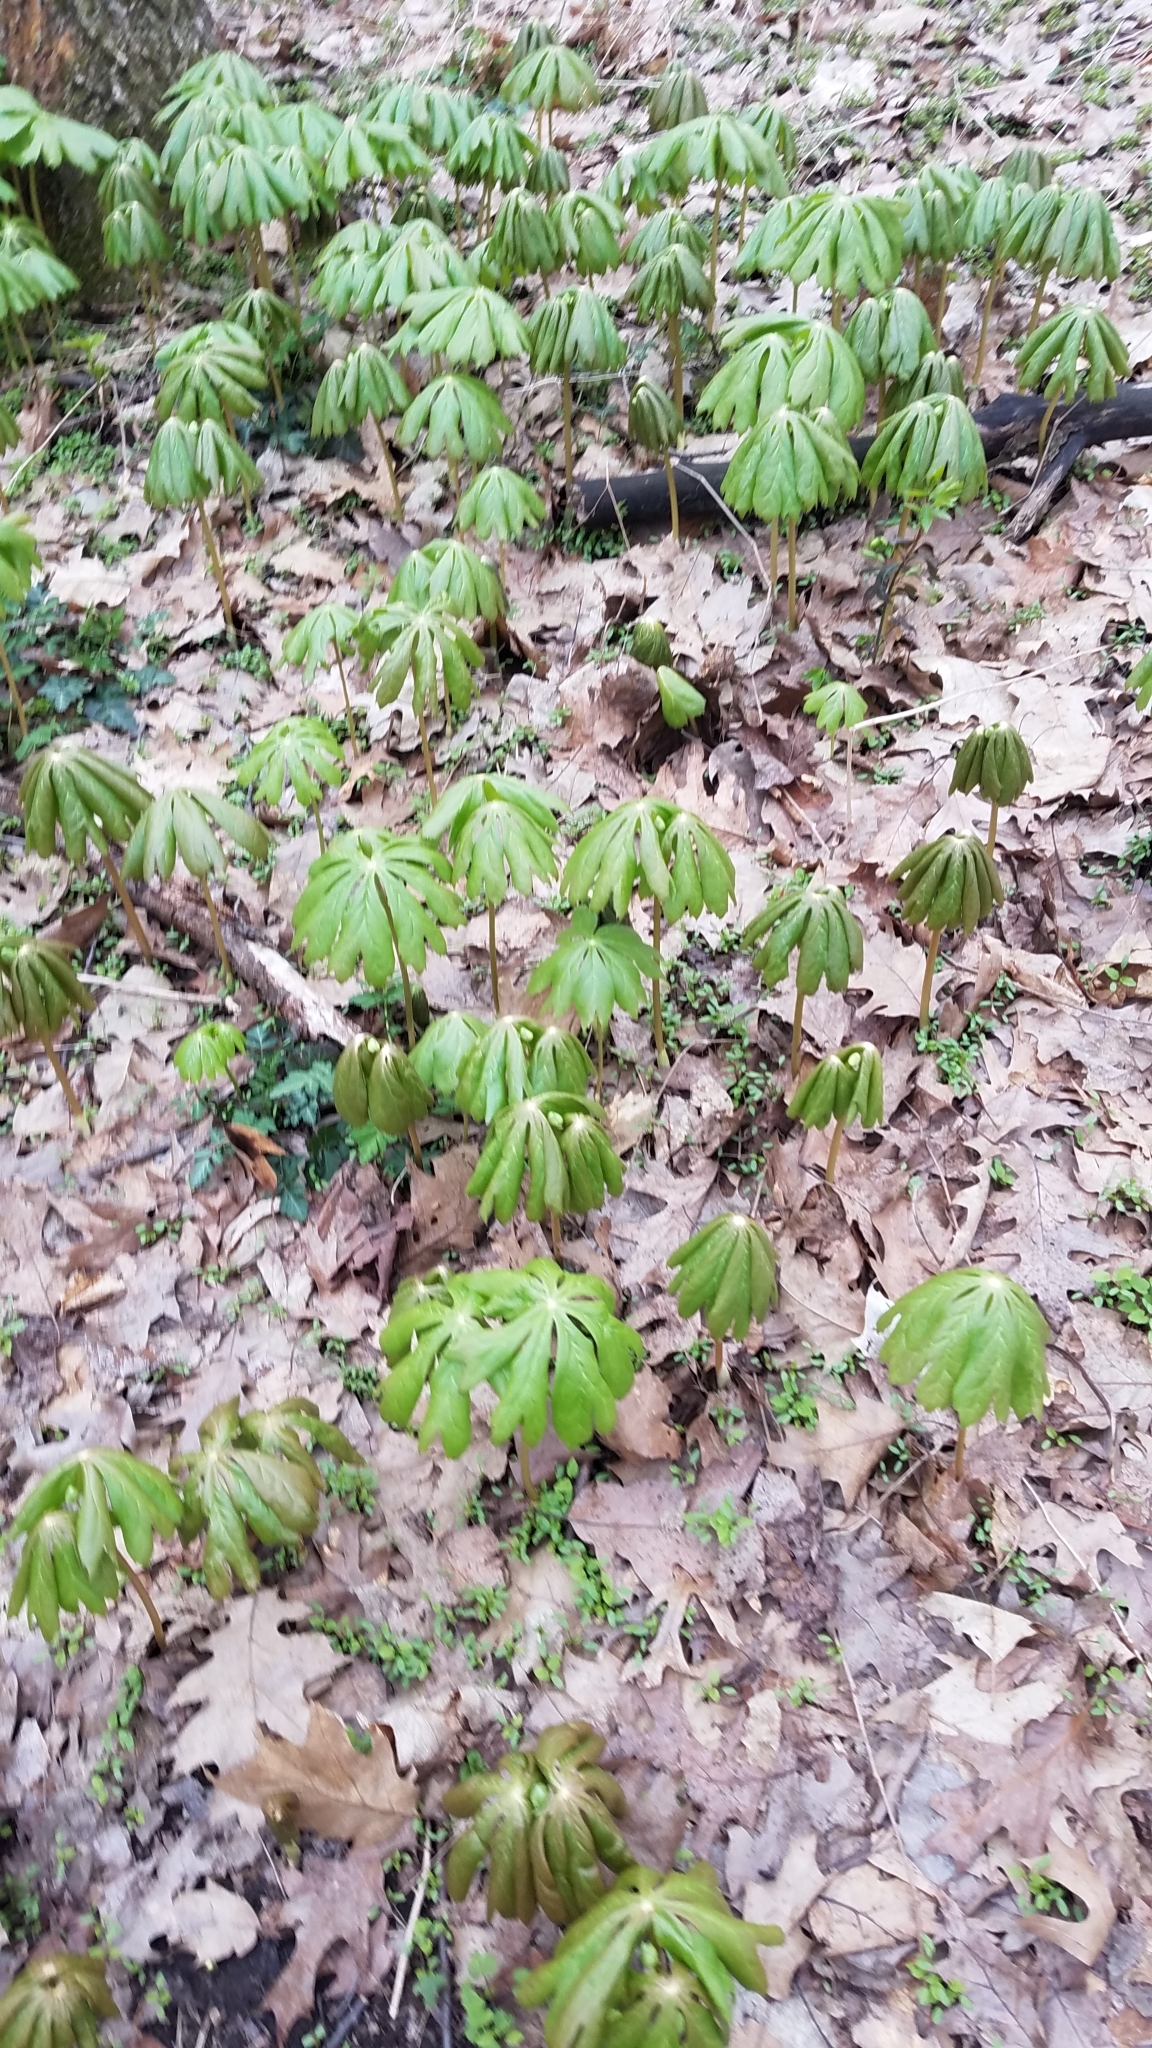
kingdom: Plantae
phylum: Tracheophyta
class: Magnoliopsida
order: Ranunculales
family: Berberidaceae
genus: Podophyllum
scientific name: Podophyllum peltatum
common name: Wild mandrake
